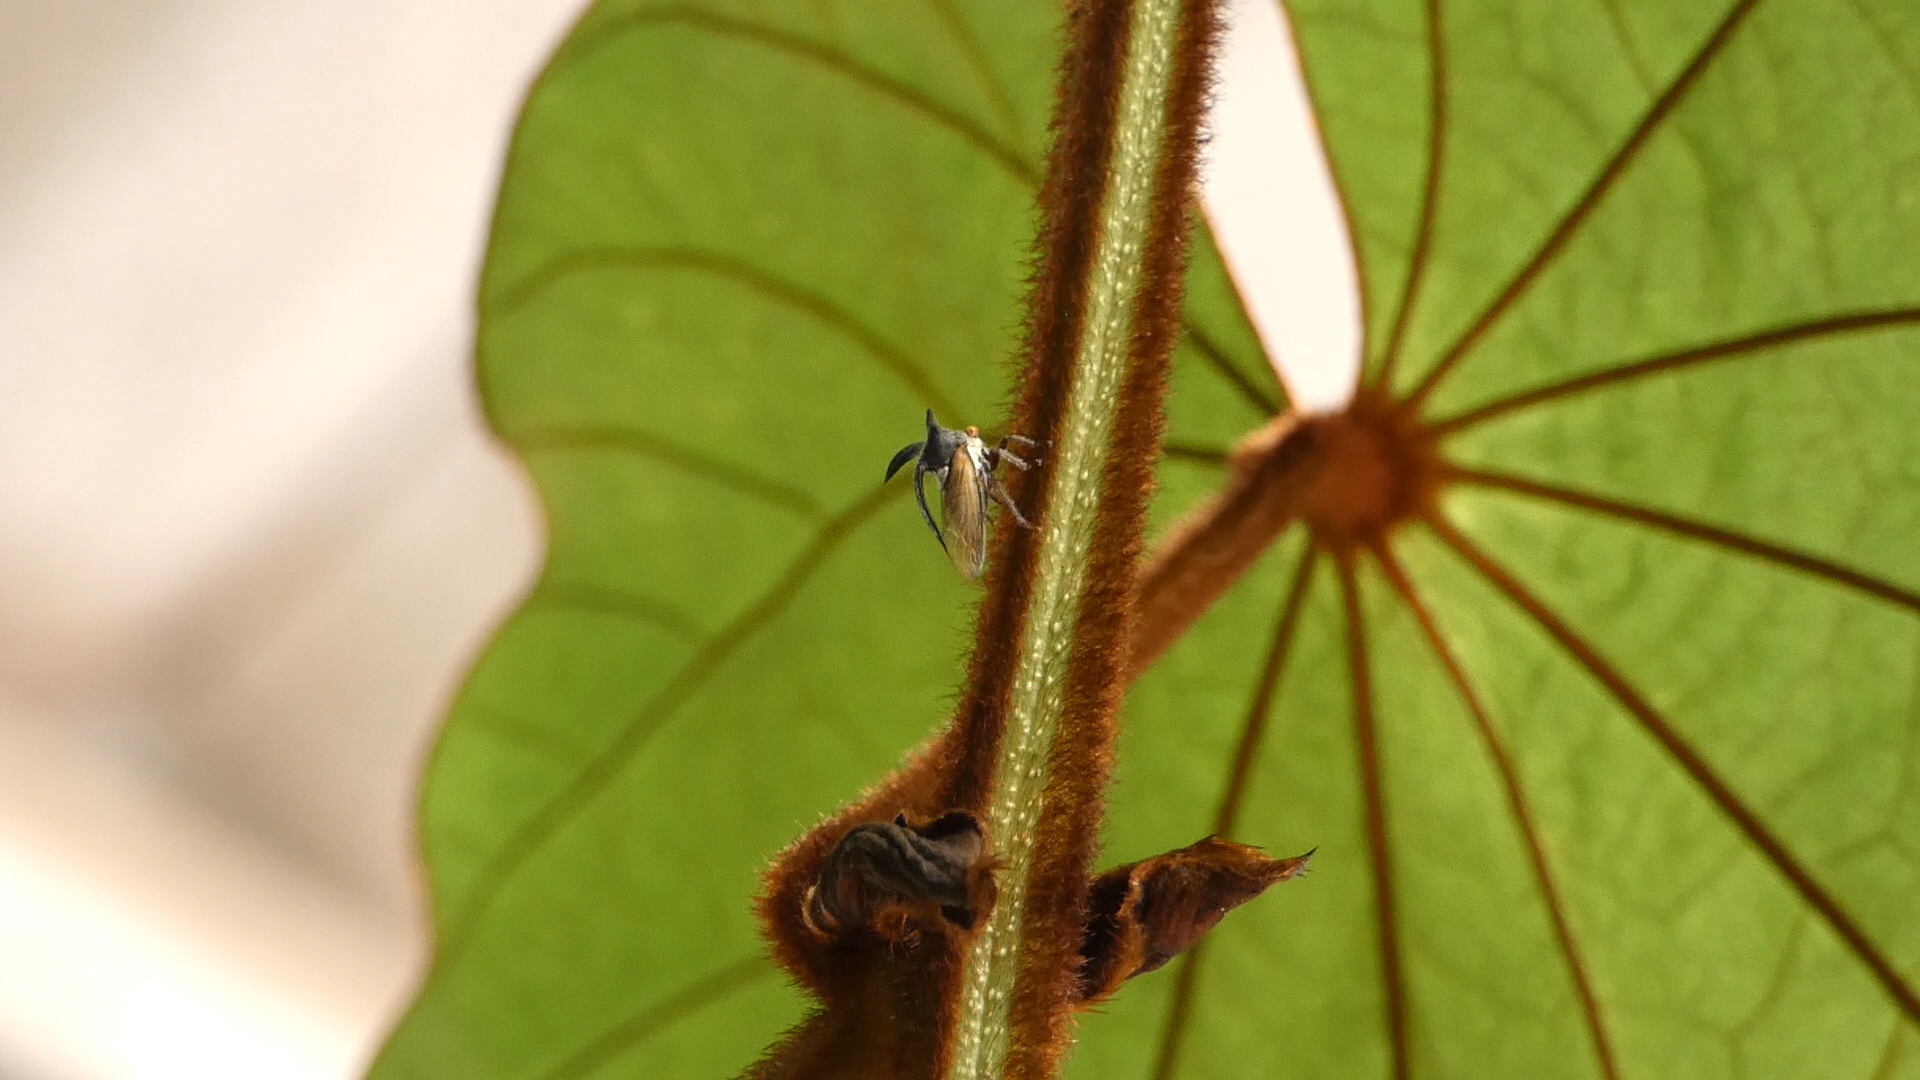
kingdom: Animalia
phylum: Arthropoda
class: Insecta
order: Hemiptera
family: Membracidae
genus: Leptocentrus
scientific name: Leptocentrus taurus
